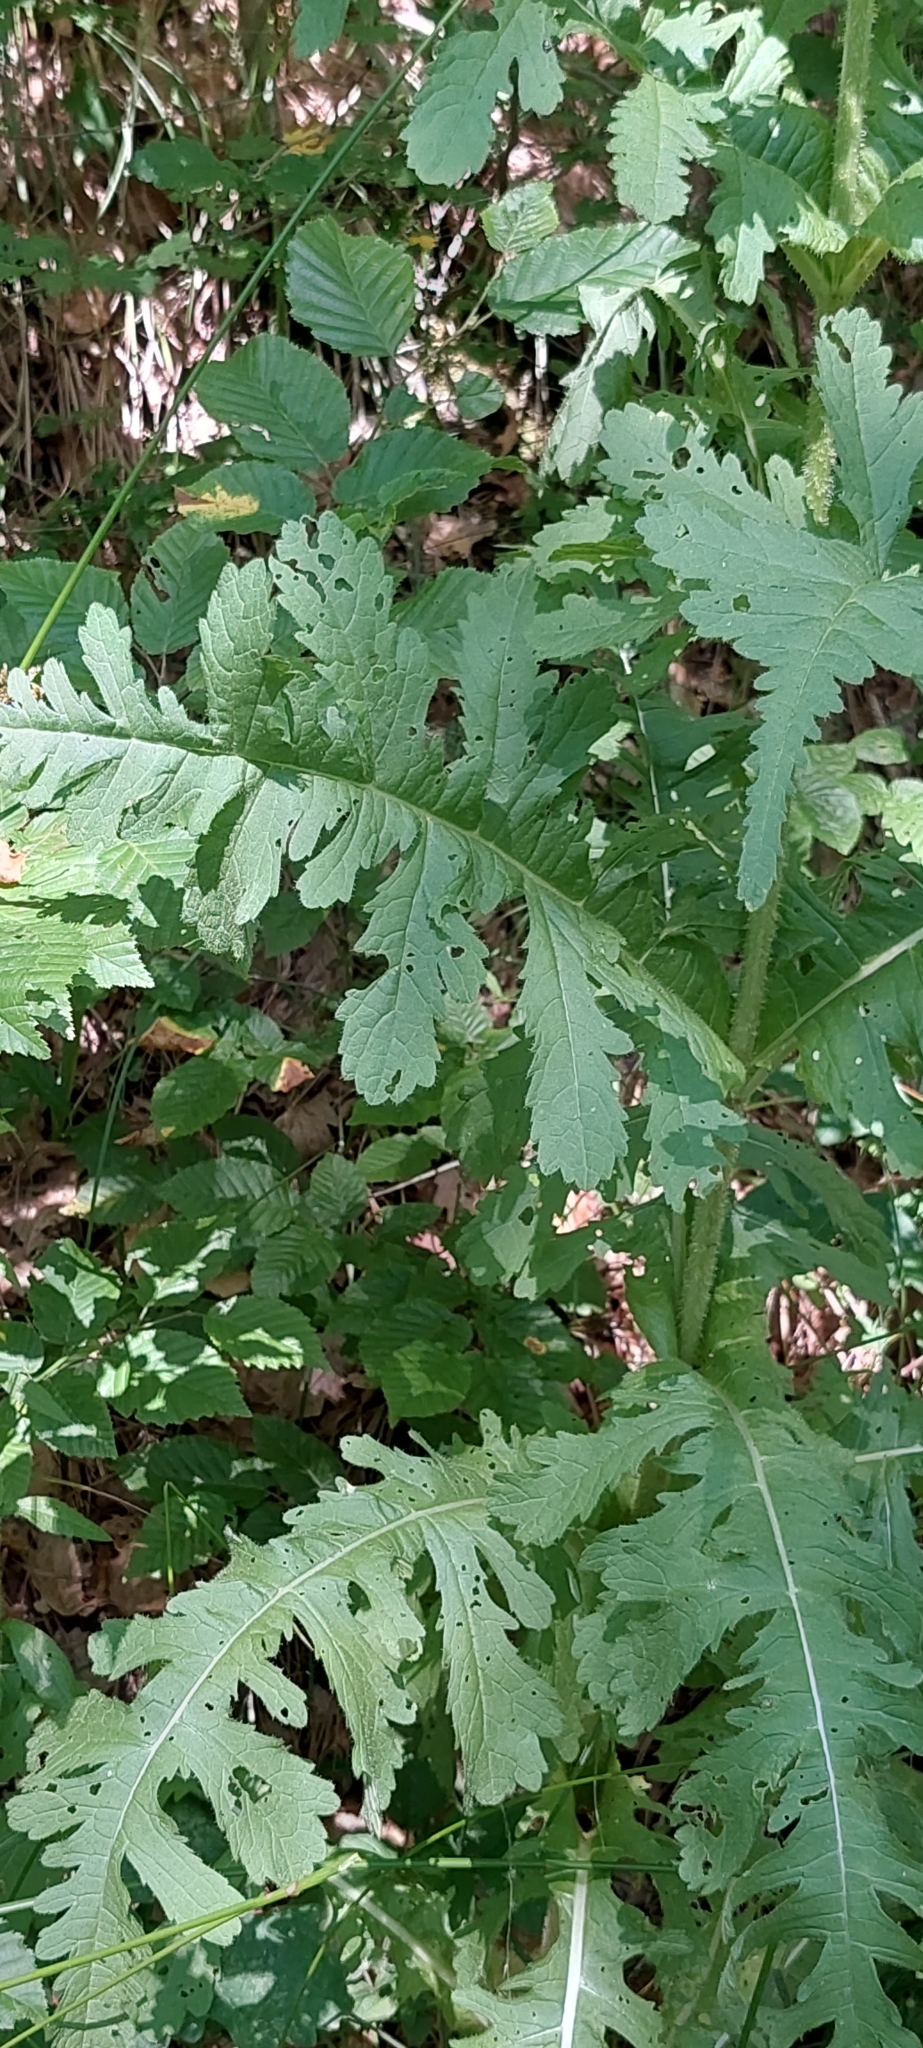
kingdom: Plantae
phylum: Tracheophyta
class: Magnoliopsida
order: Dipsacales
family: Caprifoliaceae
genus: Dipsacus
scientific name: Dipsacus laciniatus
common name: Cut-leaved teasel
